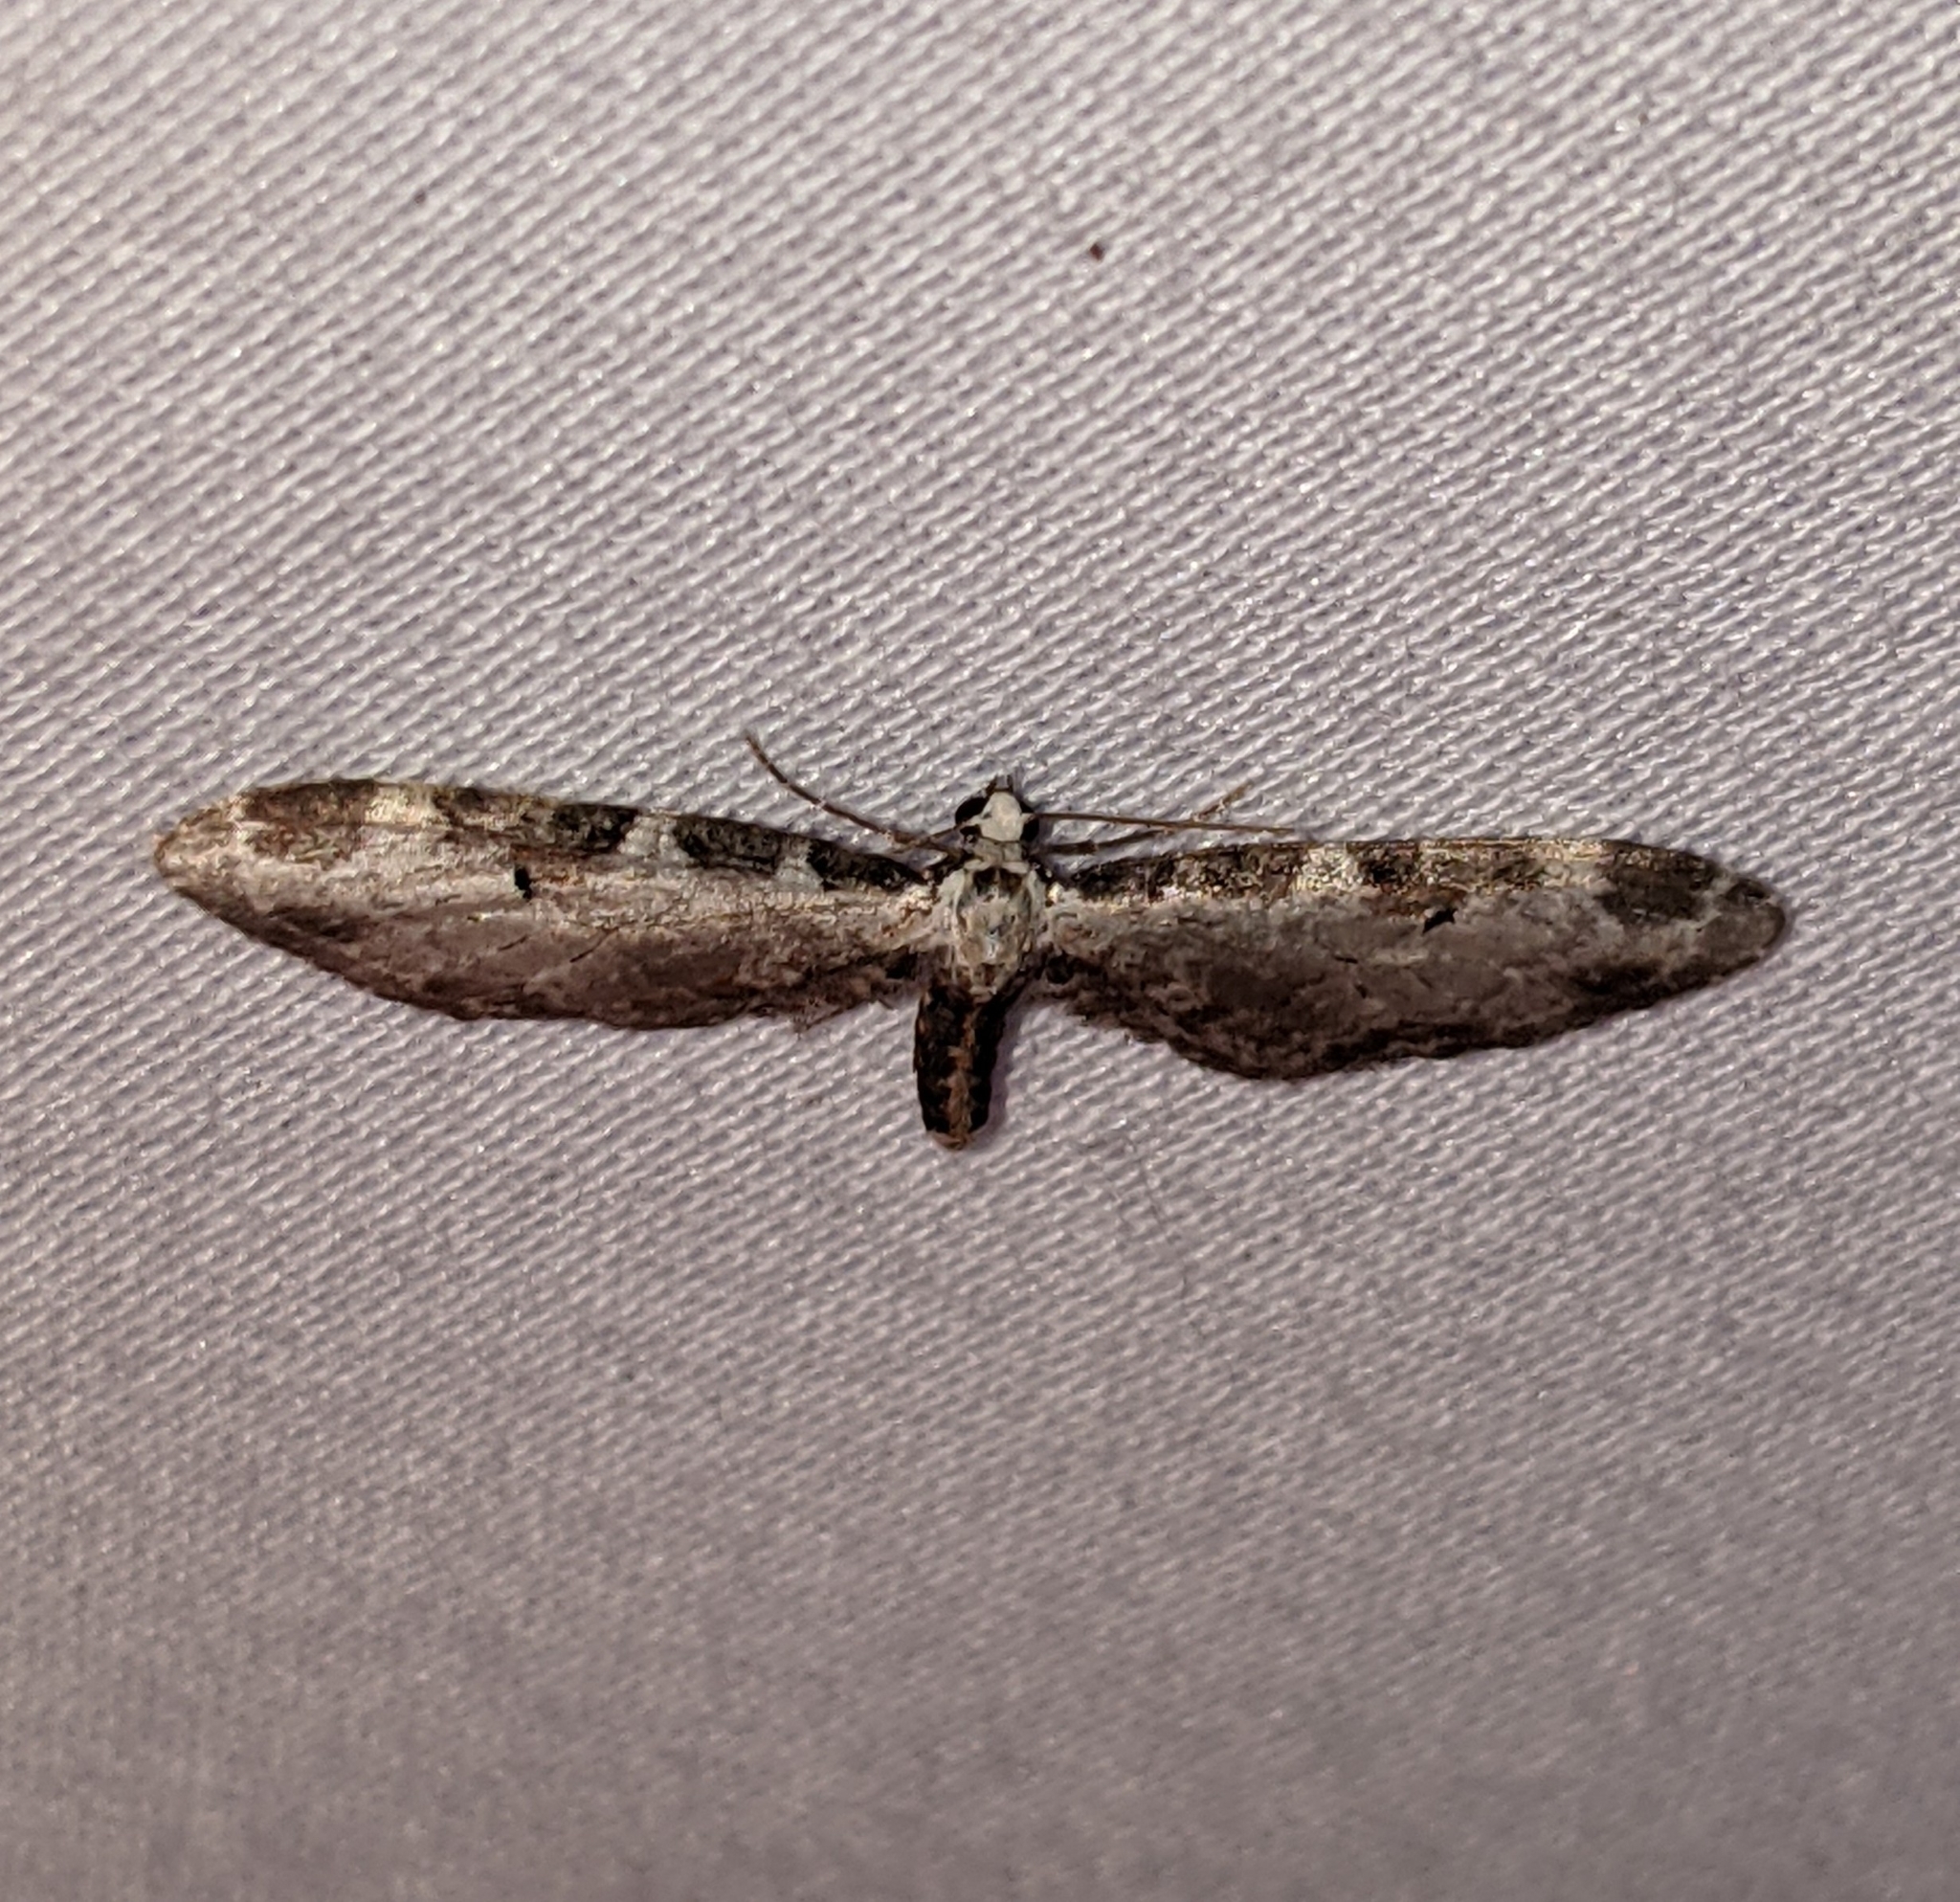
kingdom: Animalia
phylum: Arthropoda
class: Insecta
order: Lepidoptera
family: Geometridae
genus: Eupithecia
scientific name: Eupithecia ravocostaliata
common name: Great varigated pug
